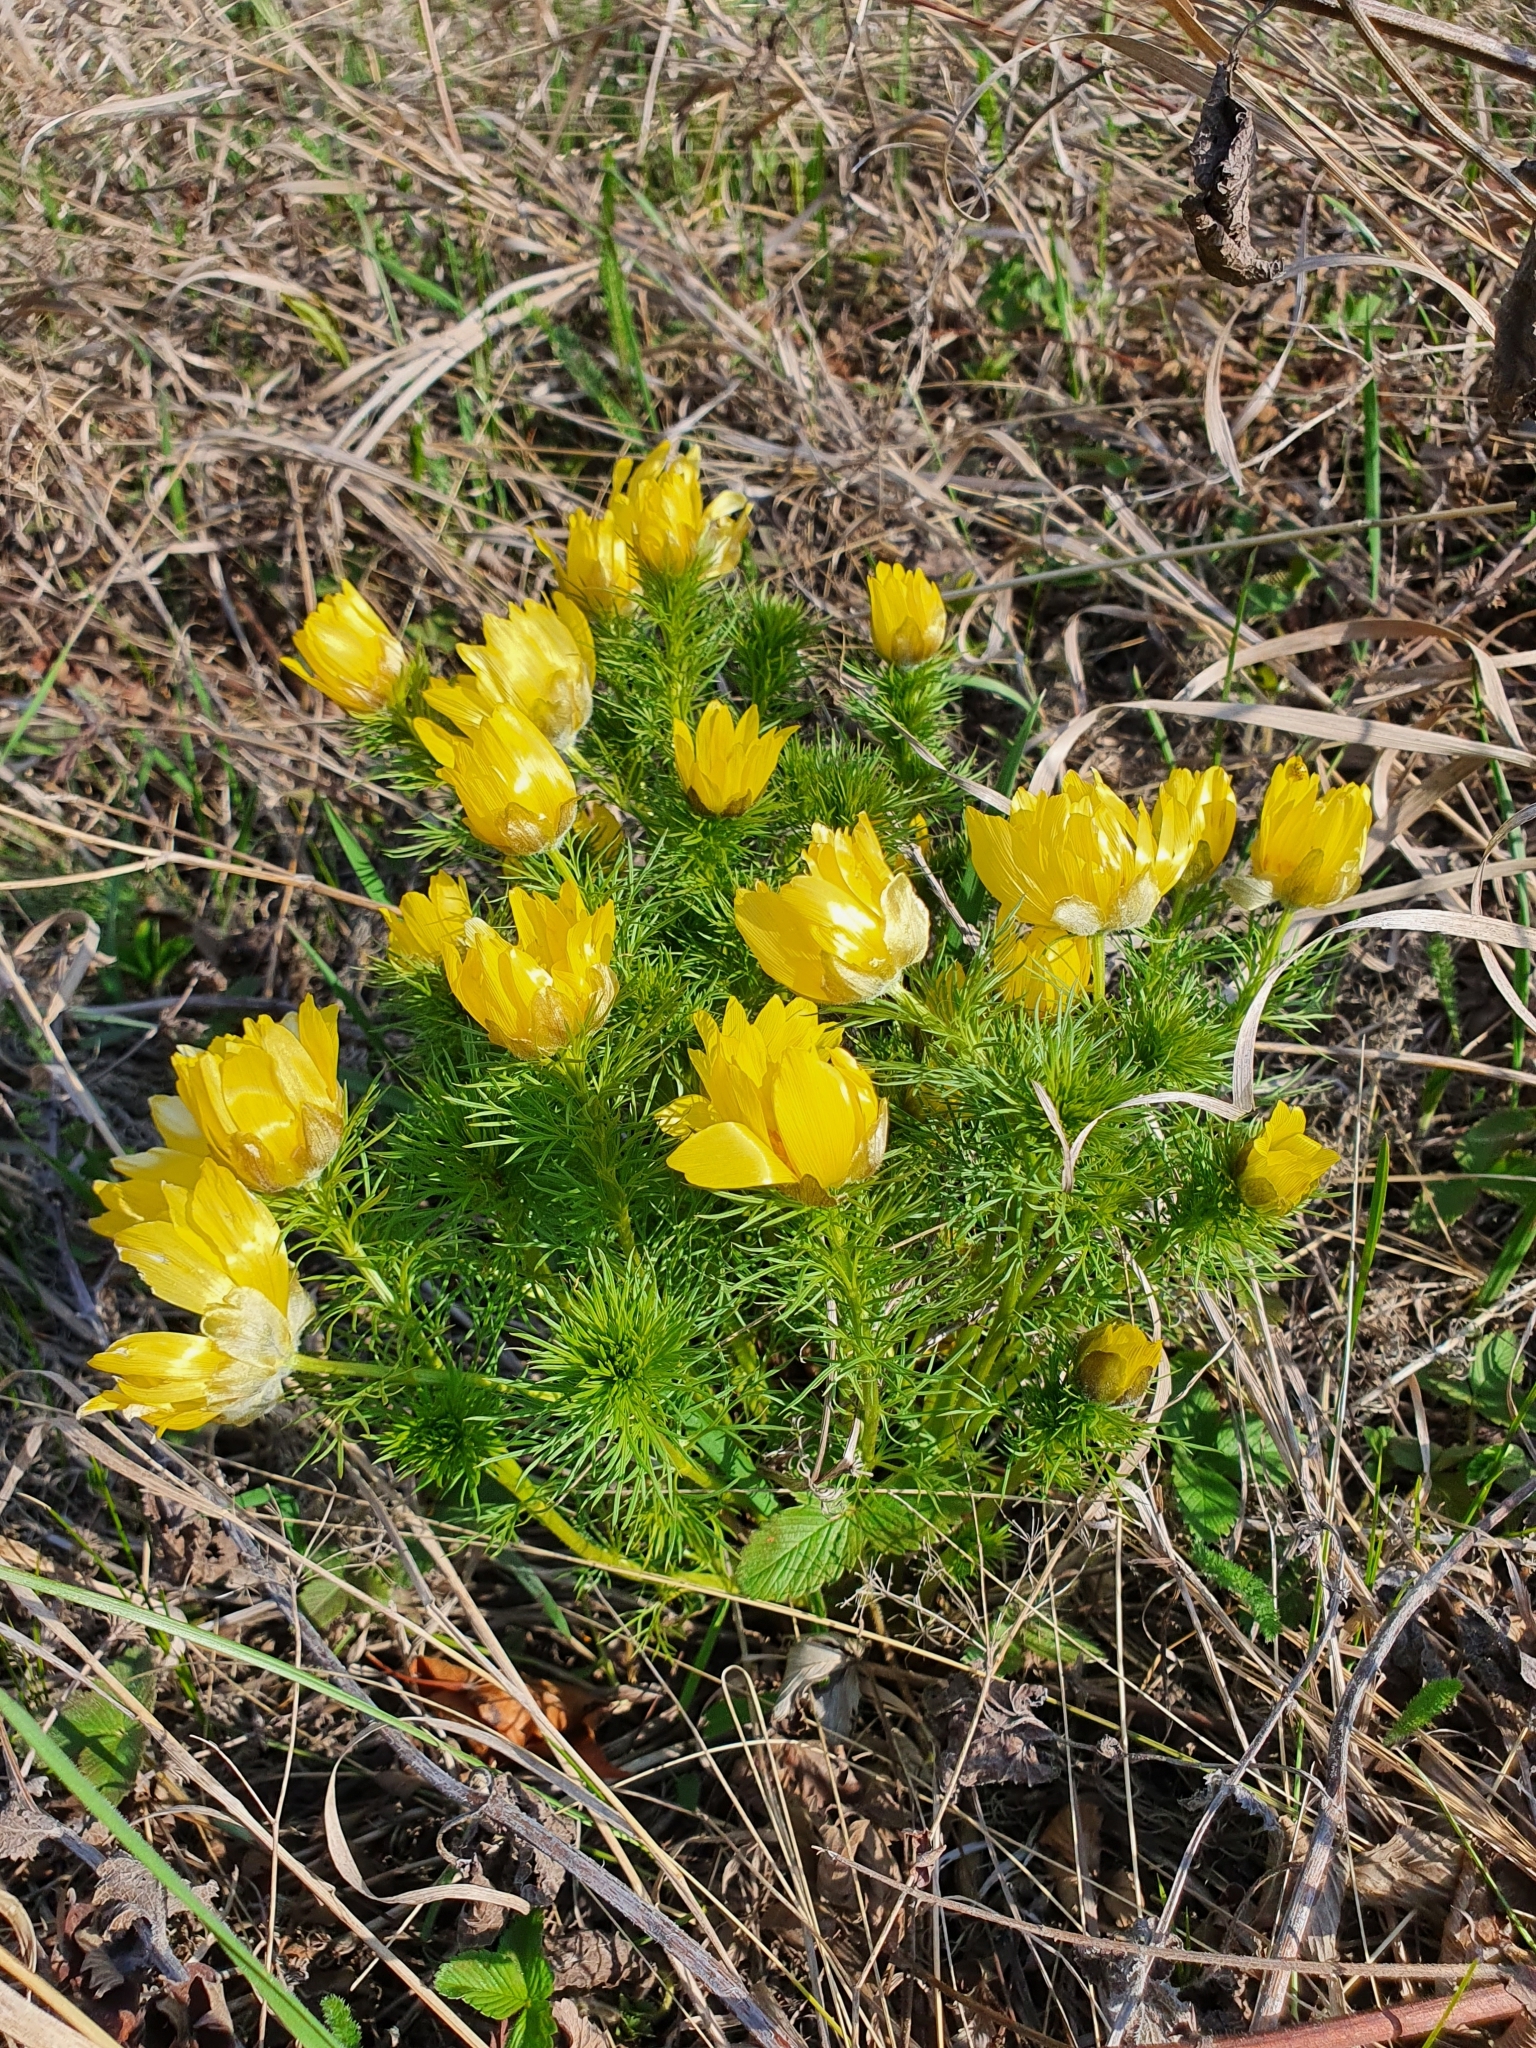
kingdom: Plantae
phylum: Tracheophyta
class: Magnoliopsida
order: Ranunculales
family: Ranunculaceae
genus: Adonis
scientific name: Adonis vernalis
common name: Yellow pheasants-eye
